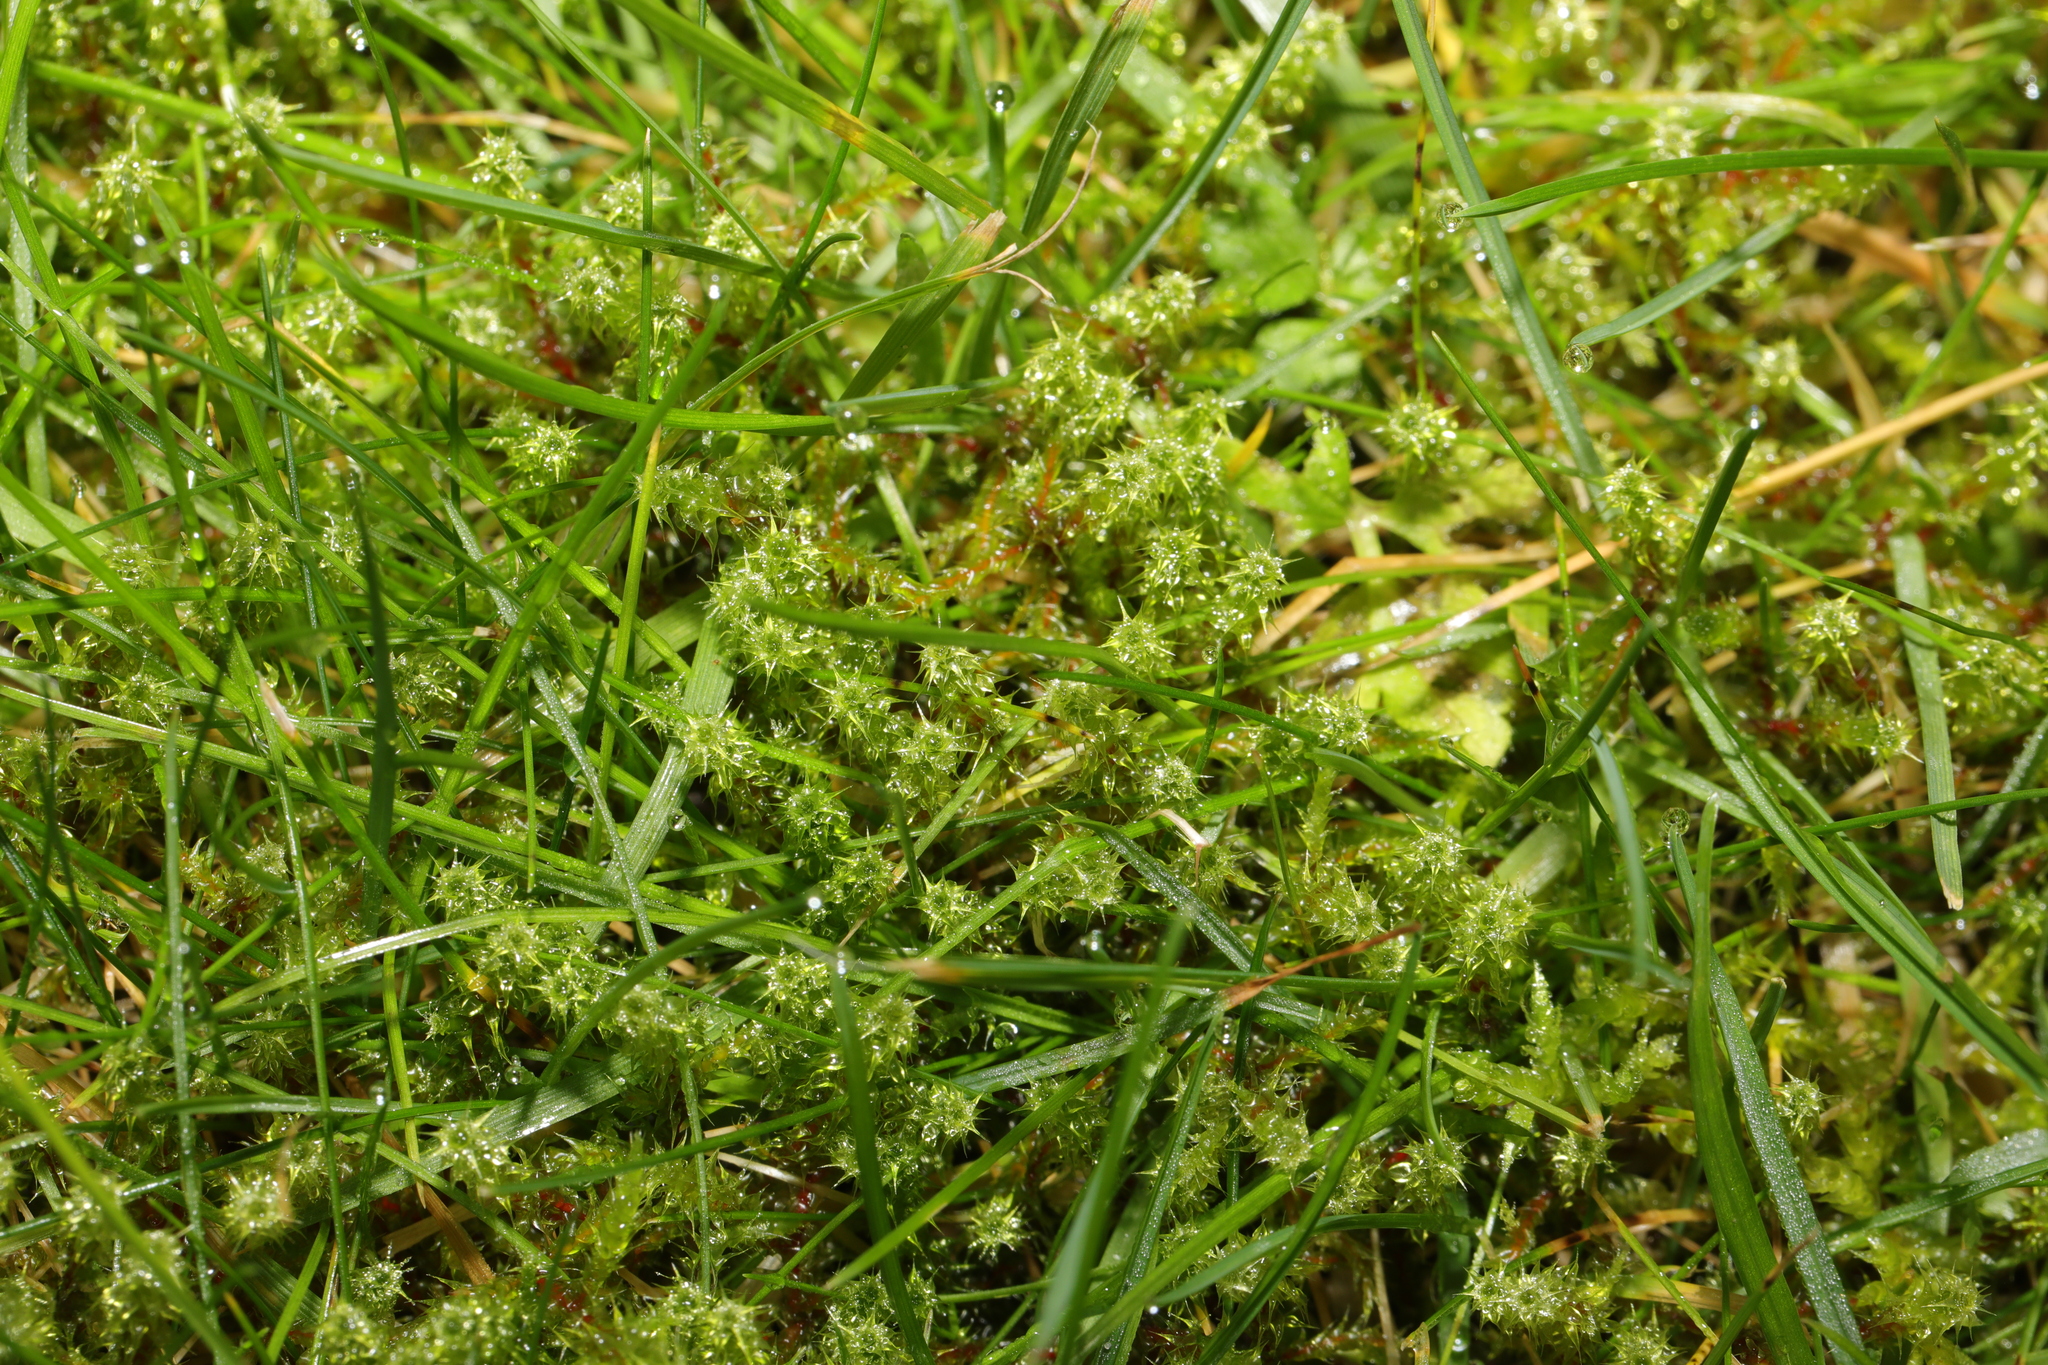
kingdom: Plantae
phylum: Bryophyta
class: Bryopsida
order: Hypnales
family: Hylocomiaceae
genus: Rhytidiadelphus
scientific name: Rhytidiadelphus squarrosus
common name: Springy turf-moss
